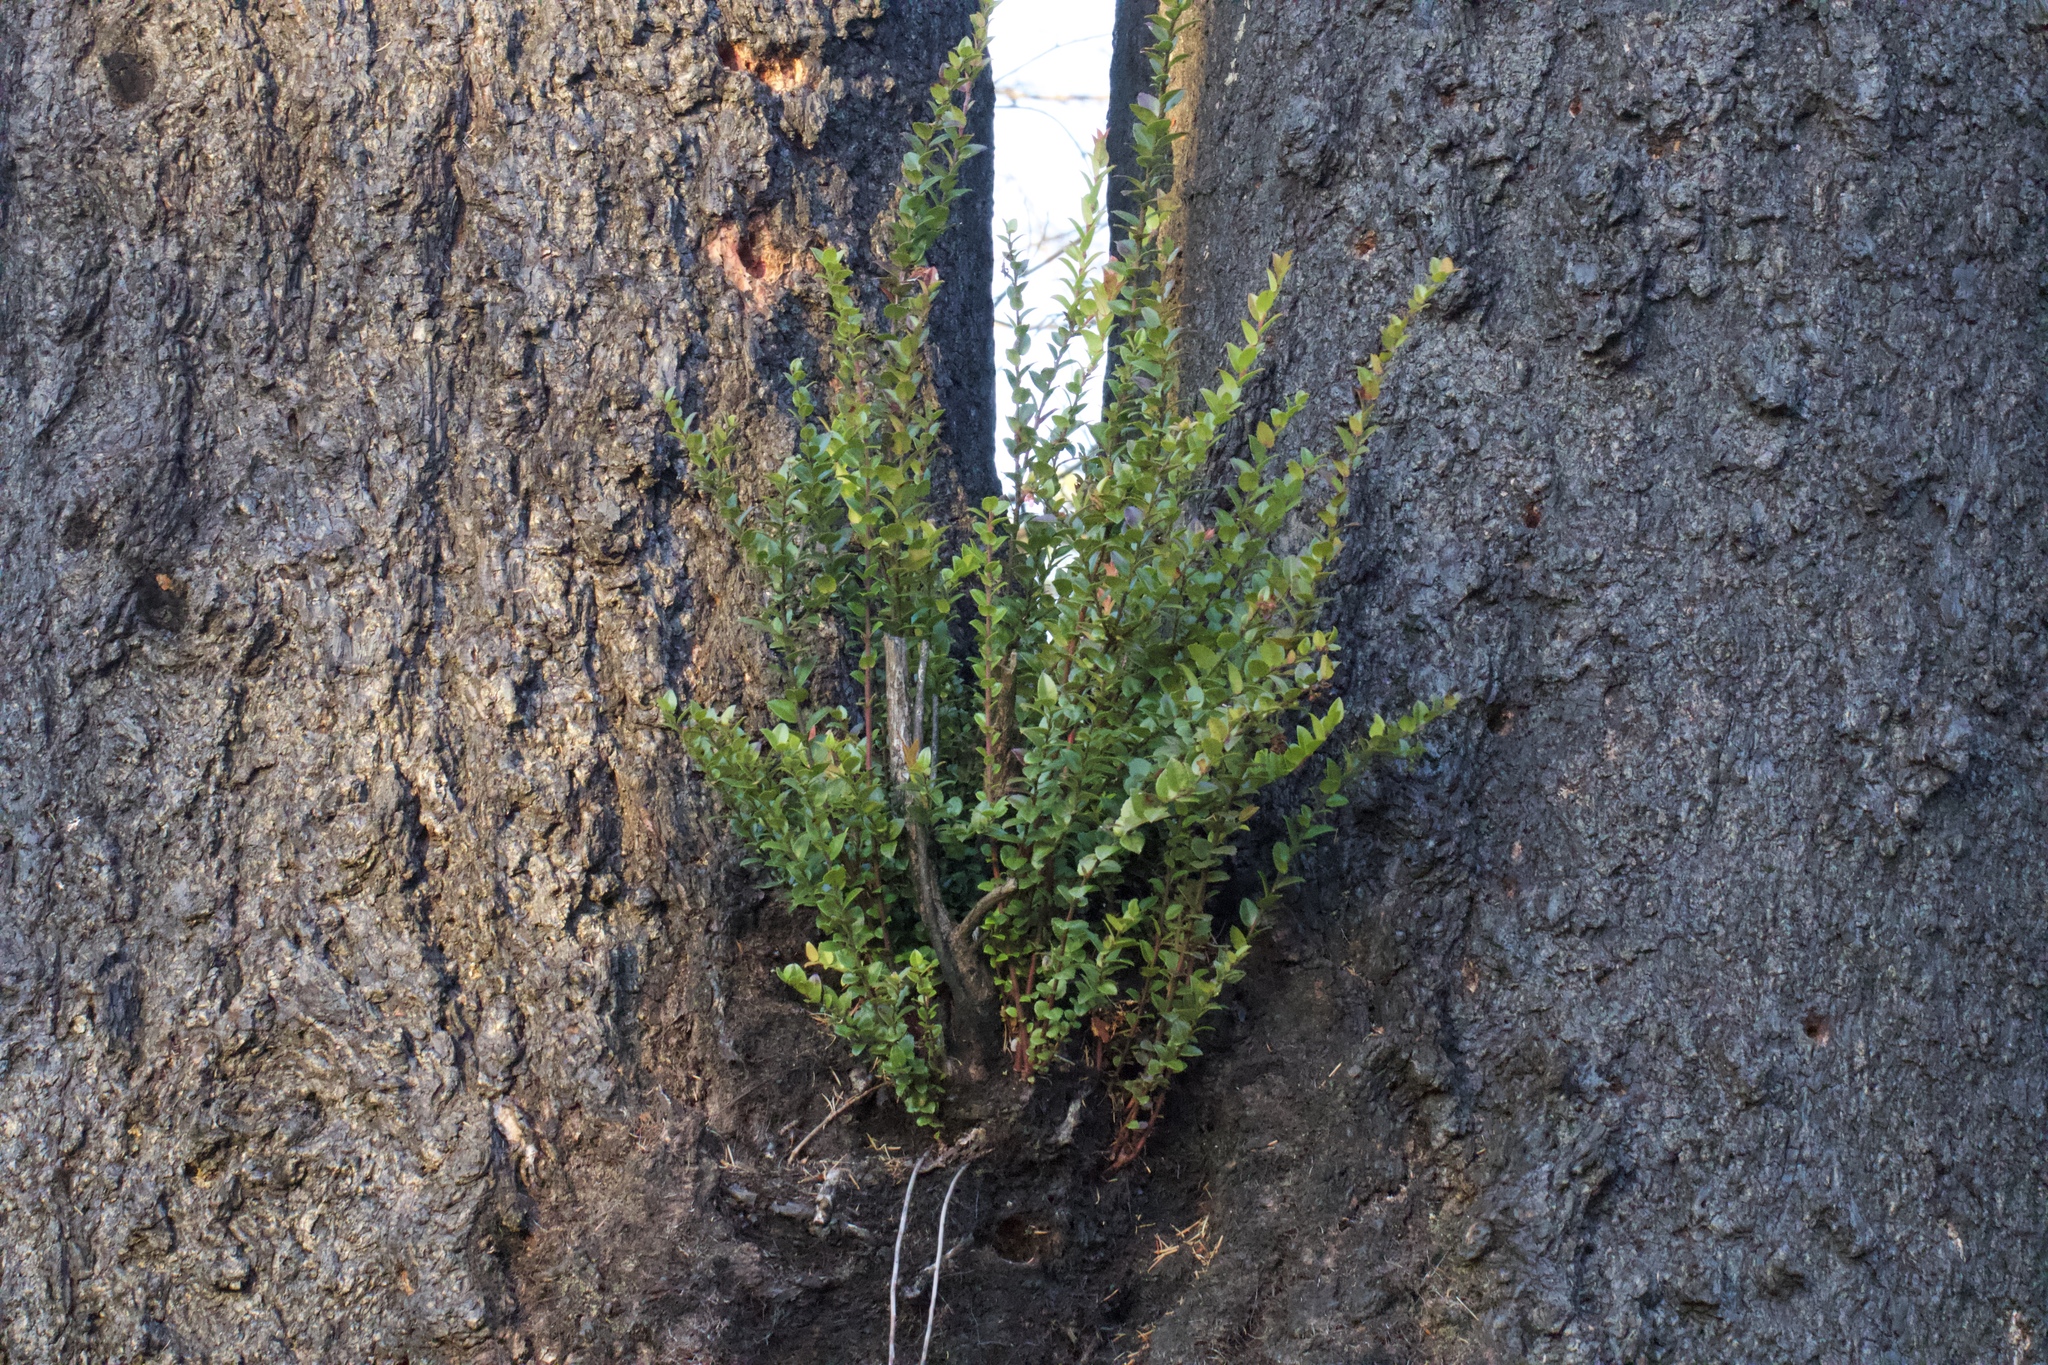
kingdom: Plantae
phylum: Tracheophyta
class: Magnoliopsida
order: Ericales
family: Ericaceae
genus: Vaccinium
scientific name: Vaccinium ovatum
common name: California-huckleberry
